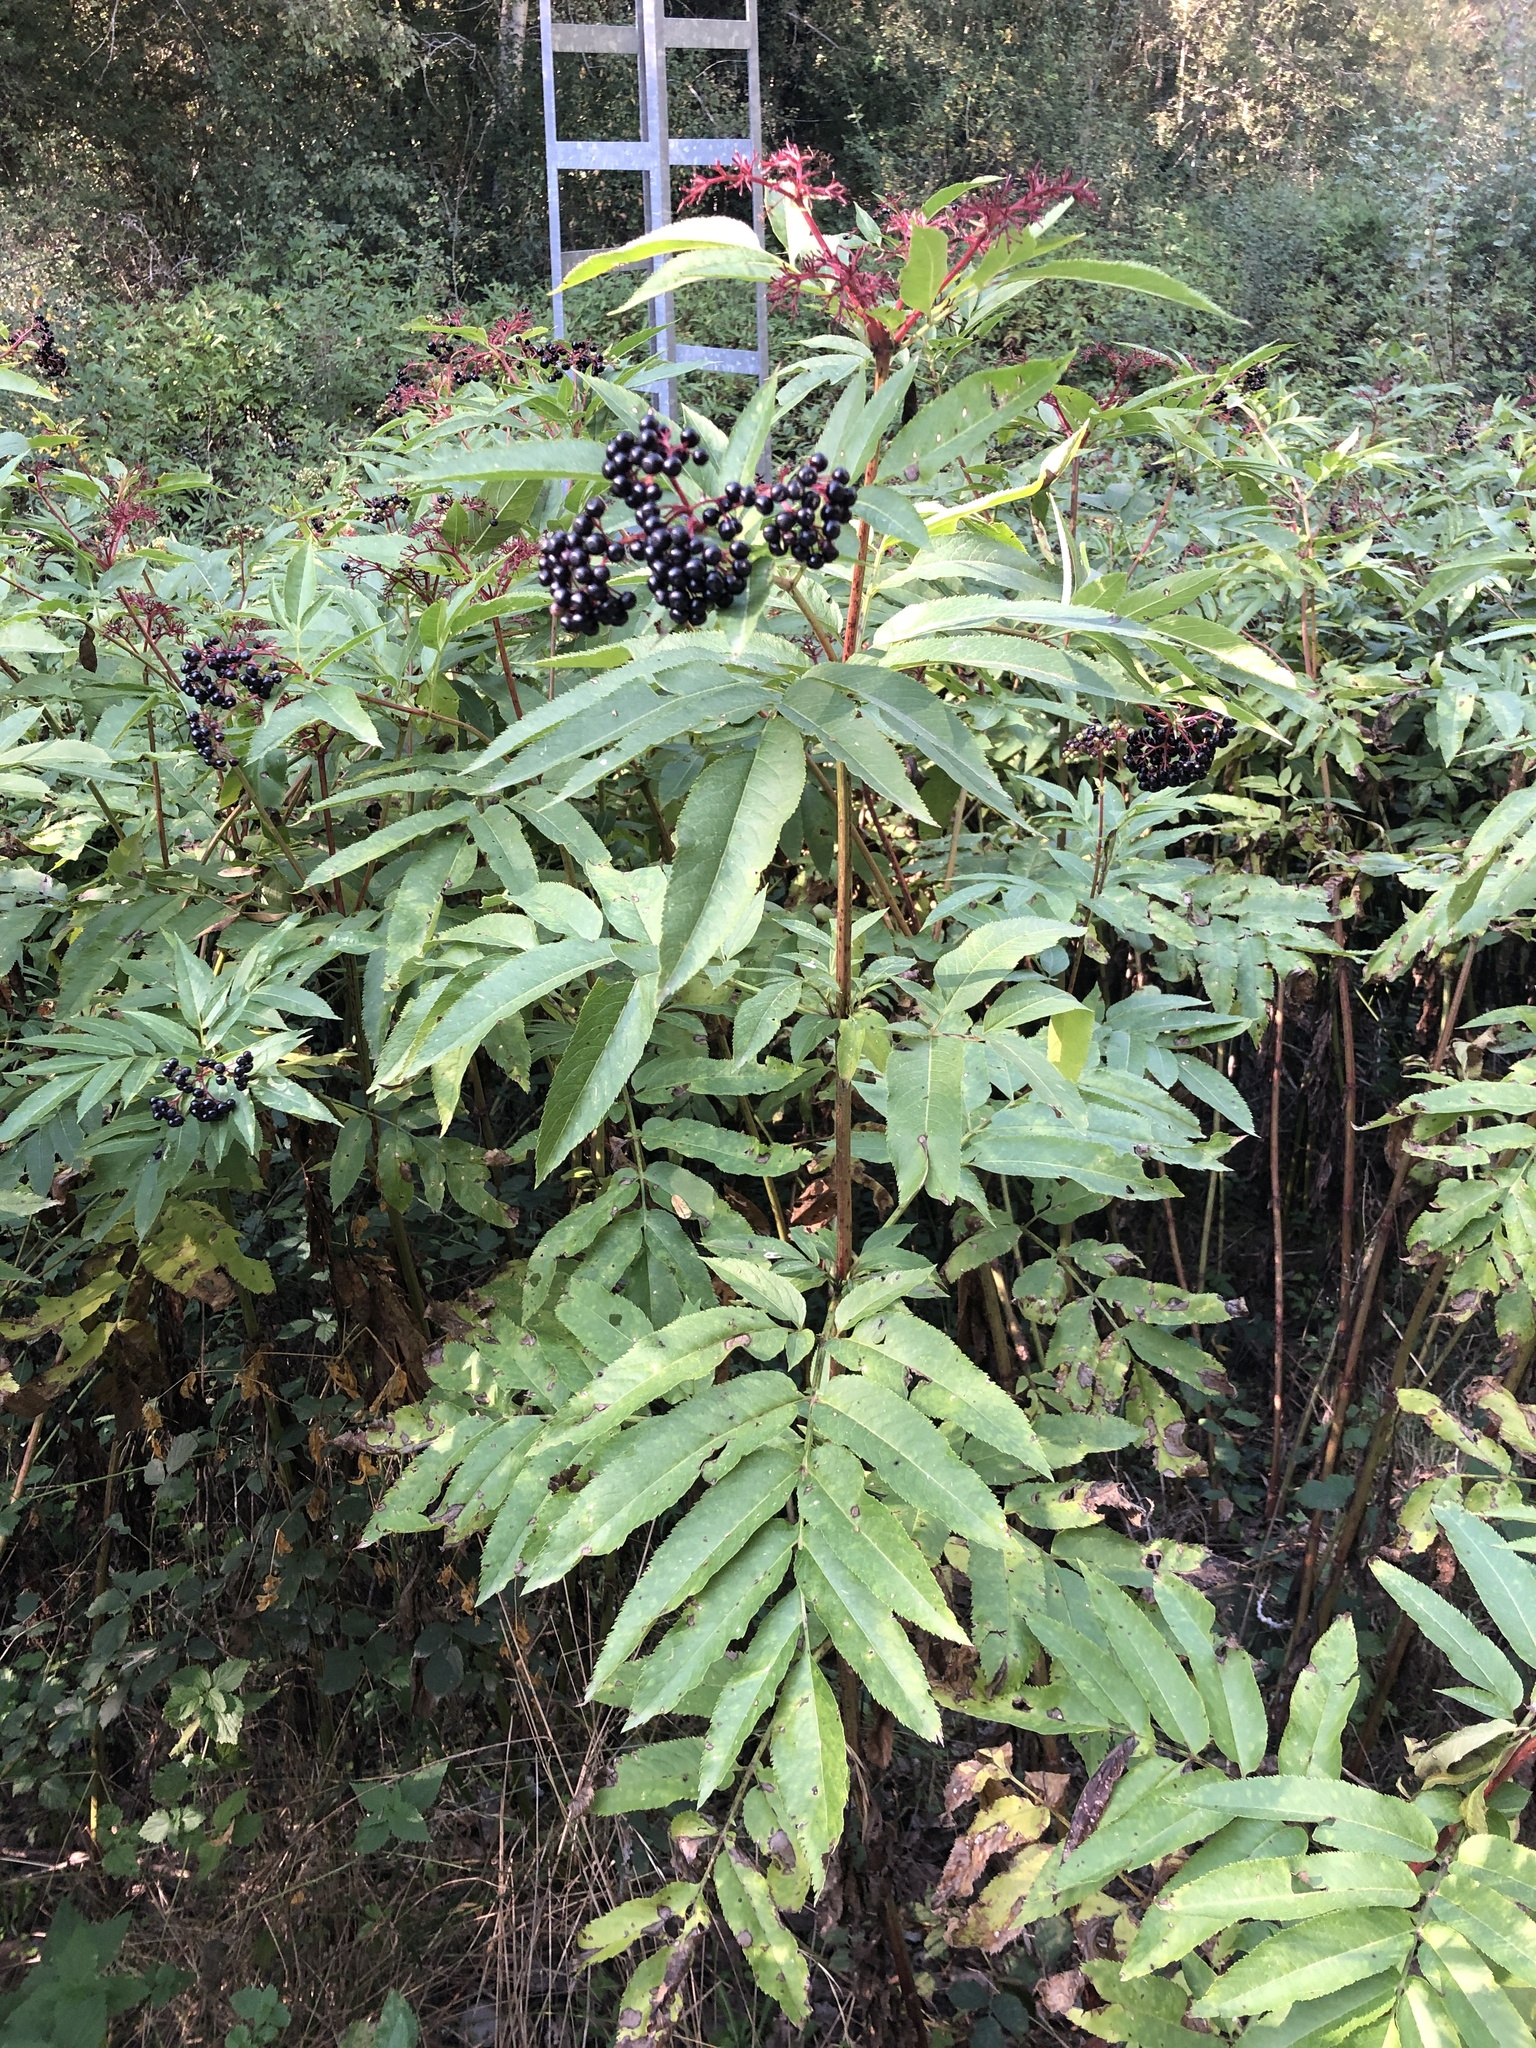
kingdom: Plantae
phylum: Tracheophyta
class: Magnoliopsida
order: Dipsacales
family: Viburnaceae
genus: Sambucus
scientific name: Sambucus ebulus
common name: Dwarf elder
